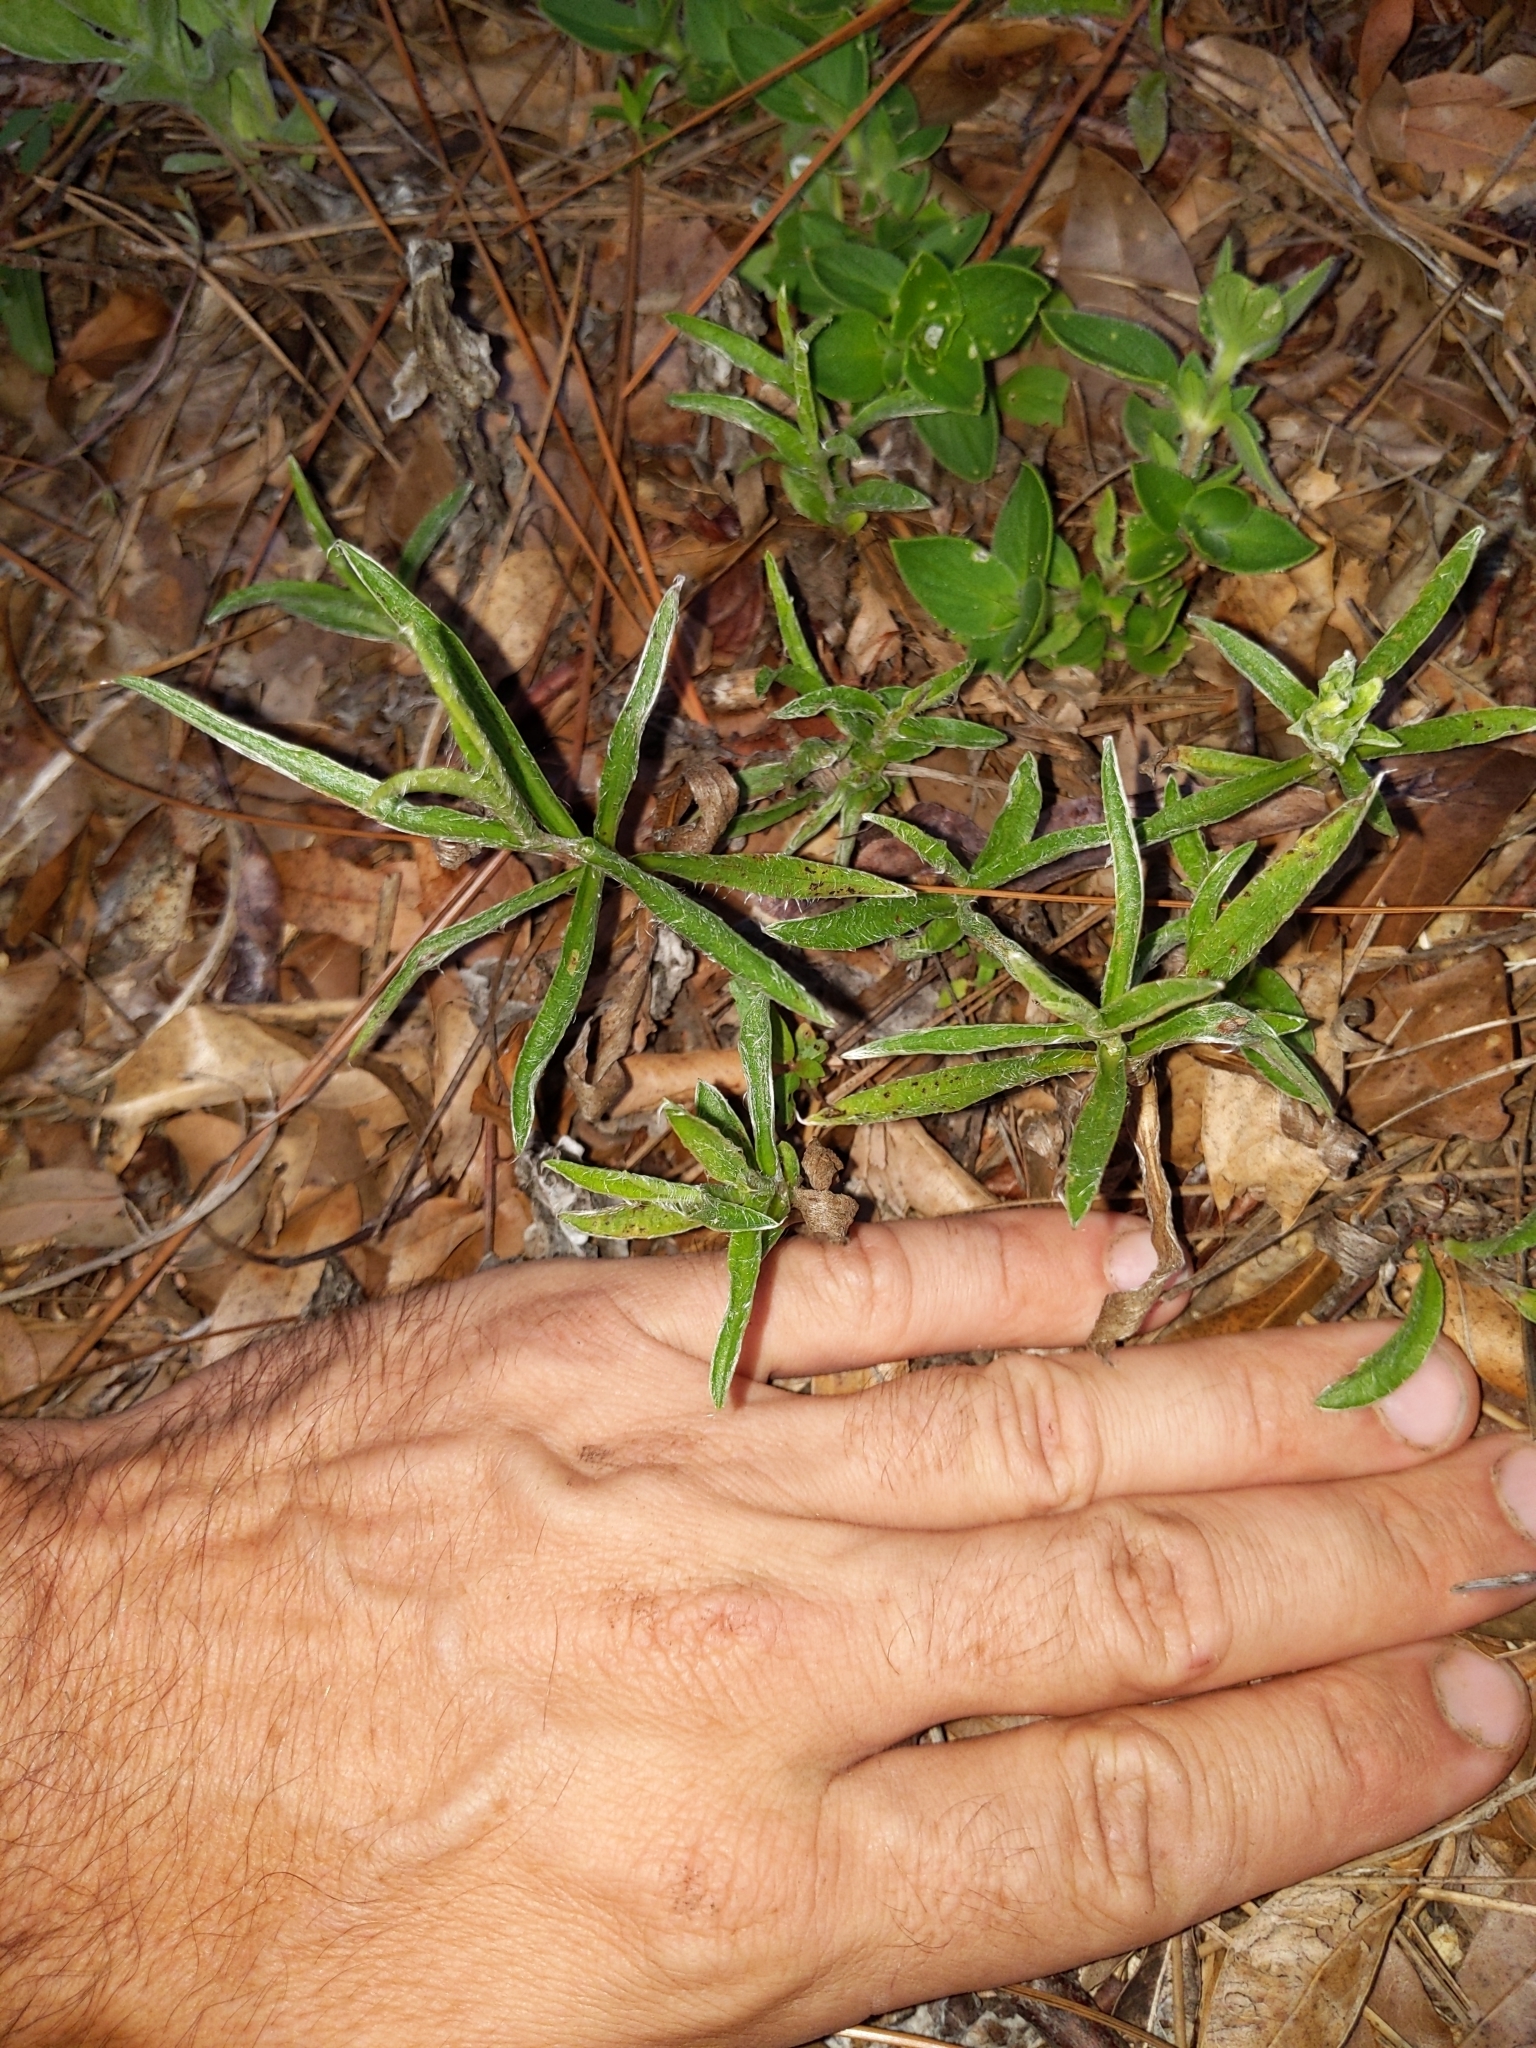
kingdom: Plantae
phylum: Tracheophyta
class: Magnoliopsida
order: Asterales
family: Asteraceae
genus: Pityopsis
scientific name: Pityopsis flexuosa
